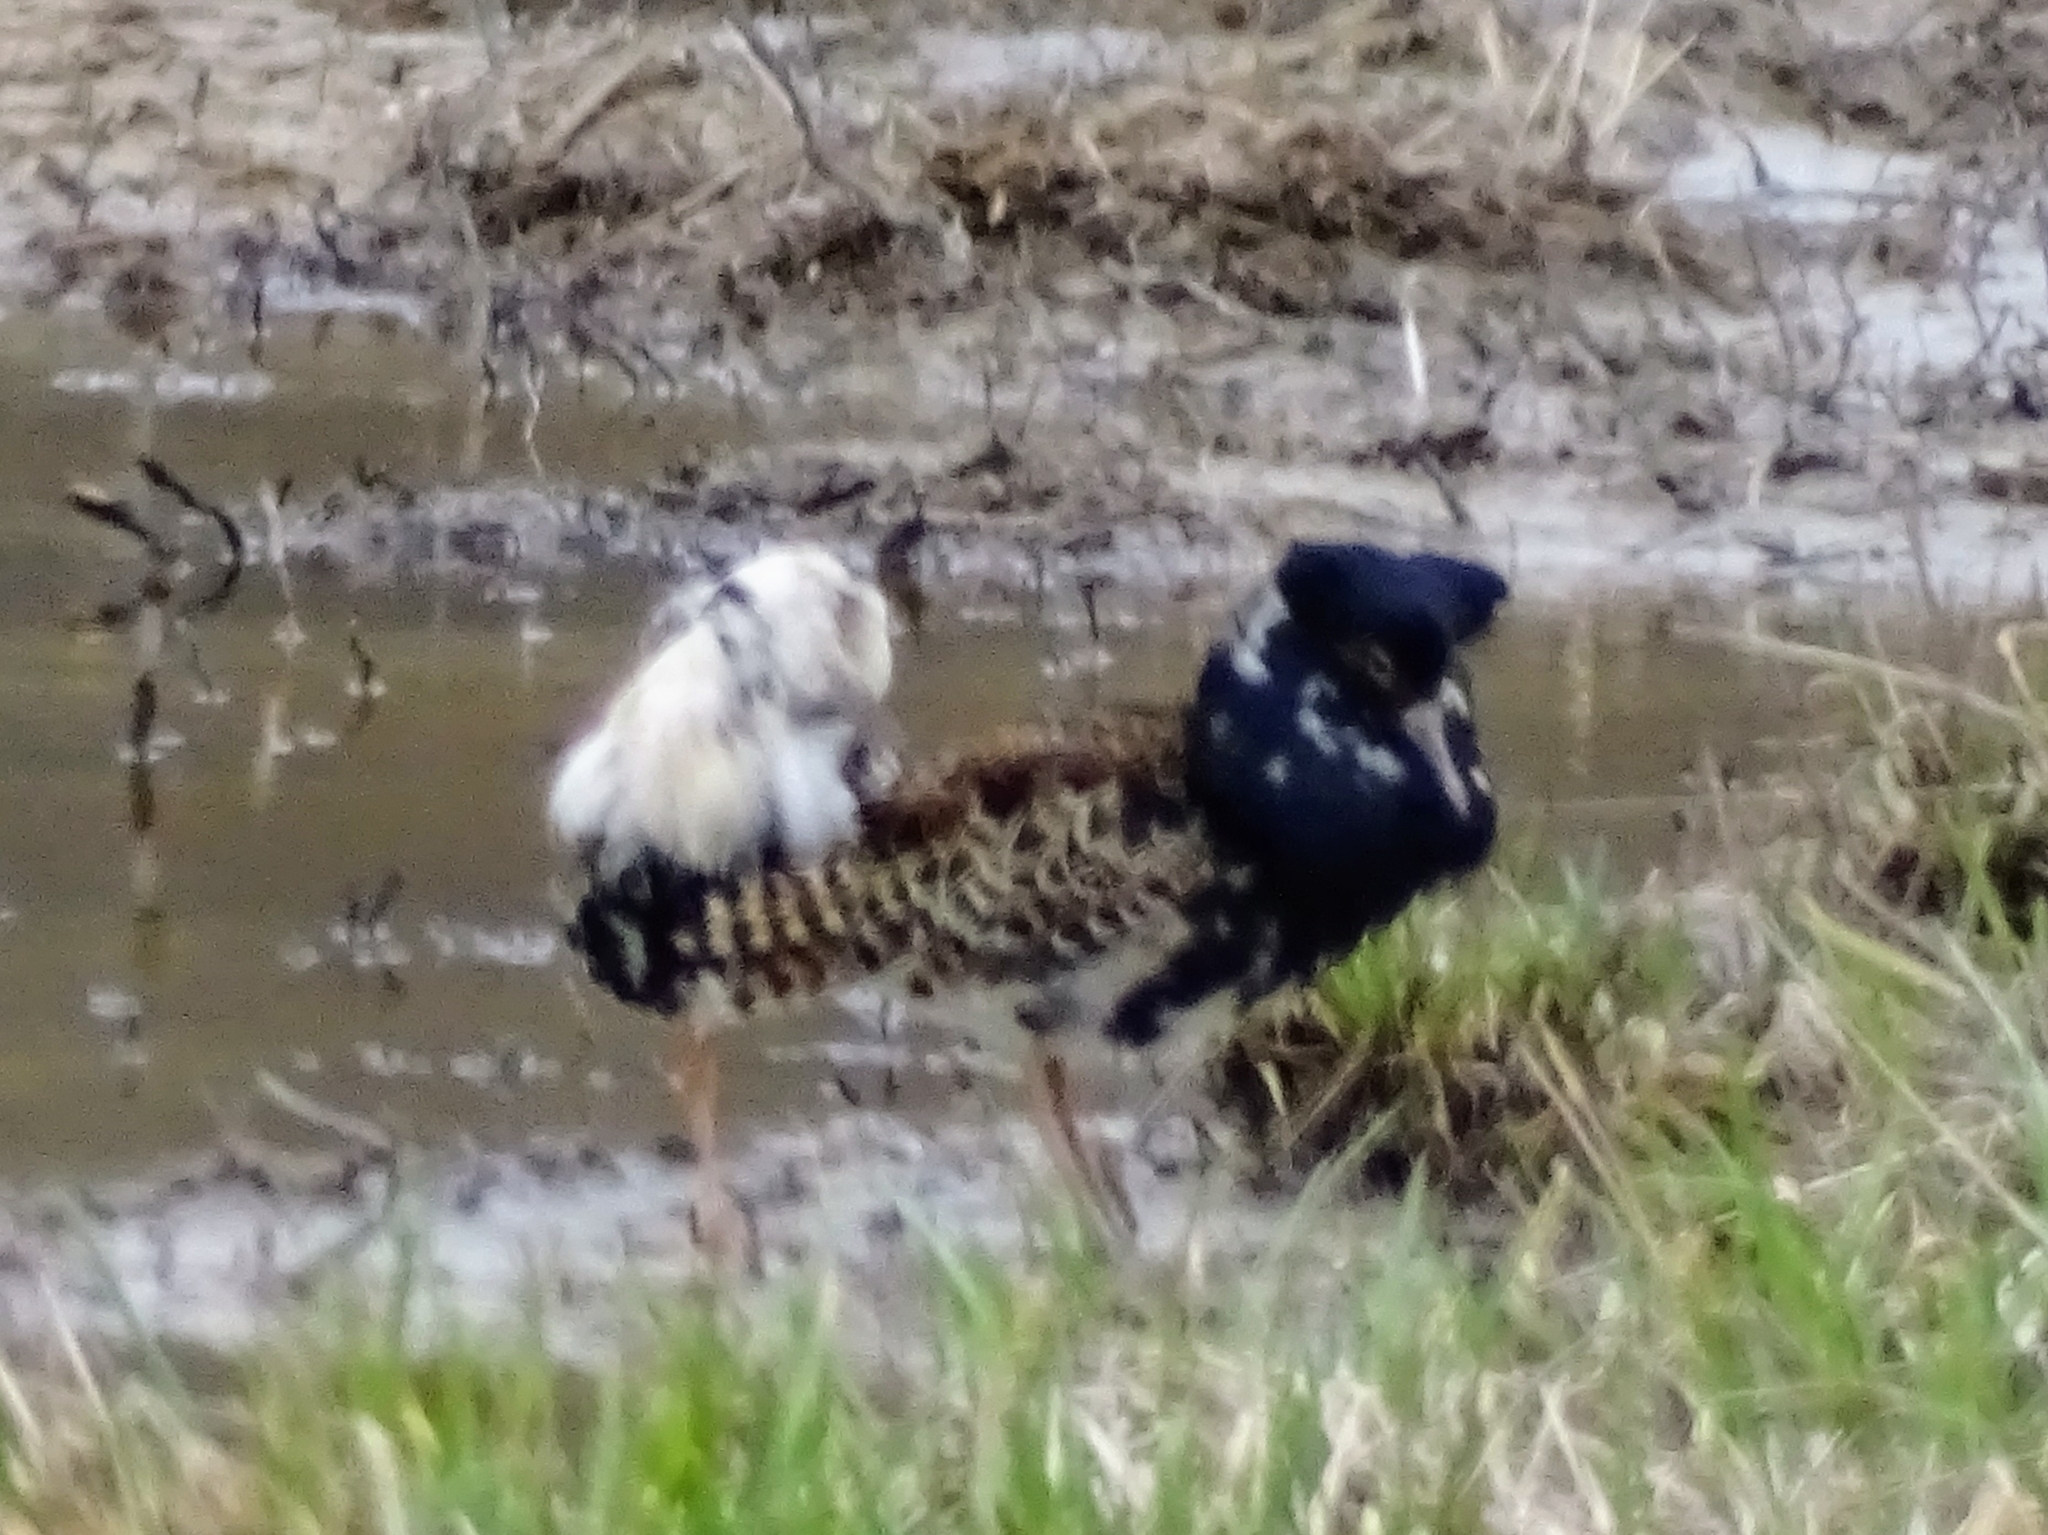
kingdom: Animalia
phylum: Chordata
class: Aves
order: Charadriiformes
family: Scolopacidae
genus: Calidris
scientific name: Calidris pugnax
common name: Ruff
